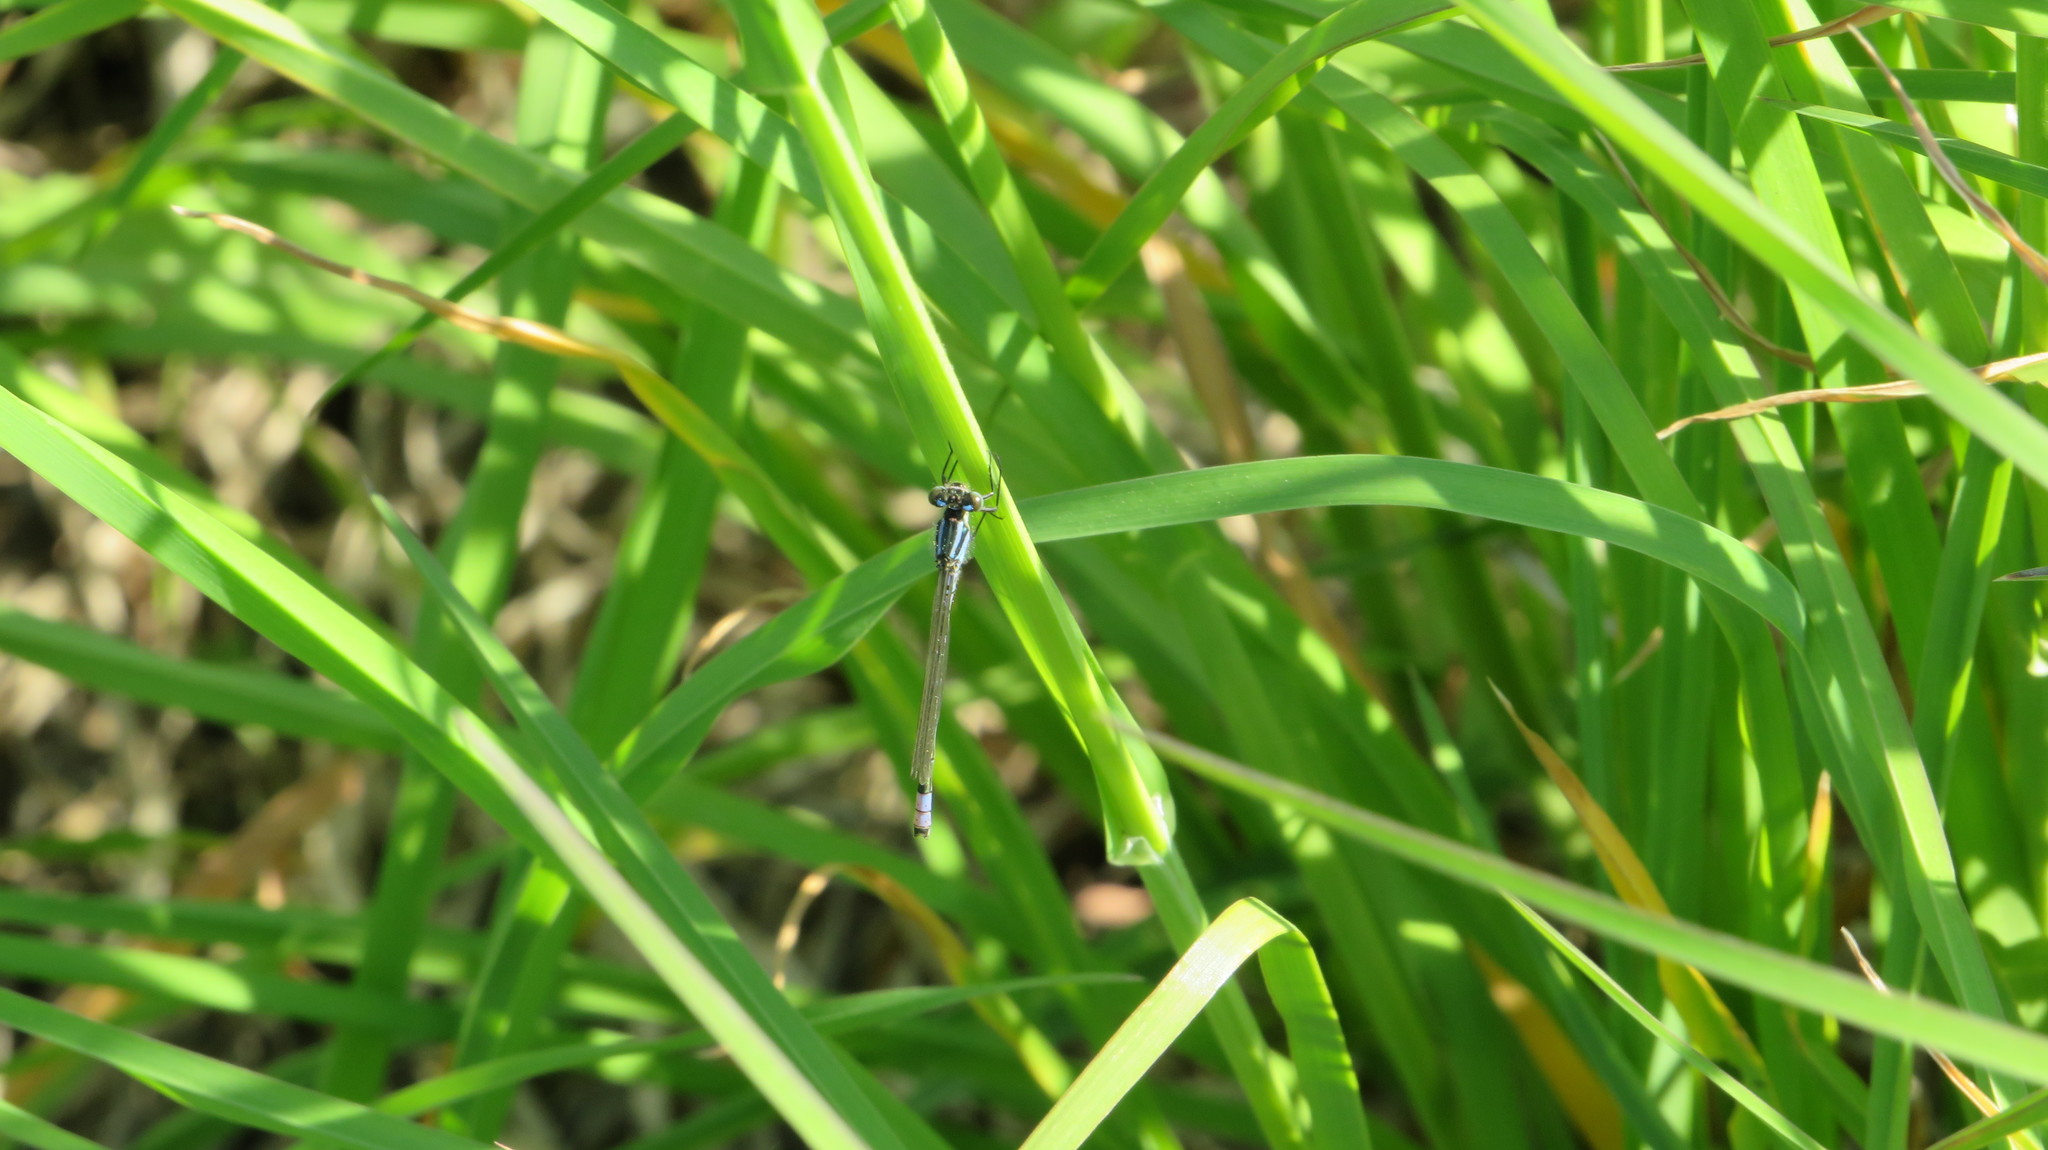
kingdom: Animalia
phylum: Arthropoda
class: Insecta
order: Odonata
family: Coenagrionidae
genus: Coenagrion
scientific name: Coenagrion lunulatum
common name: Irish damselfly
